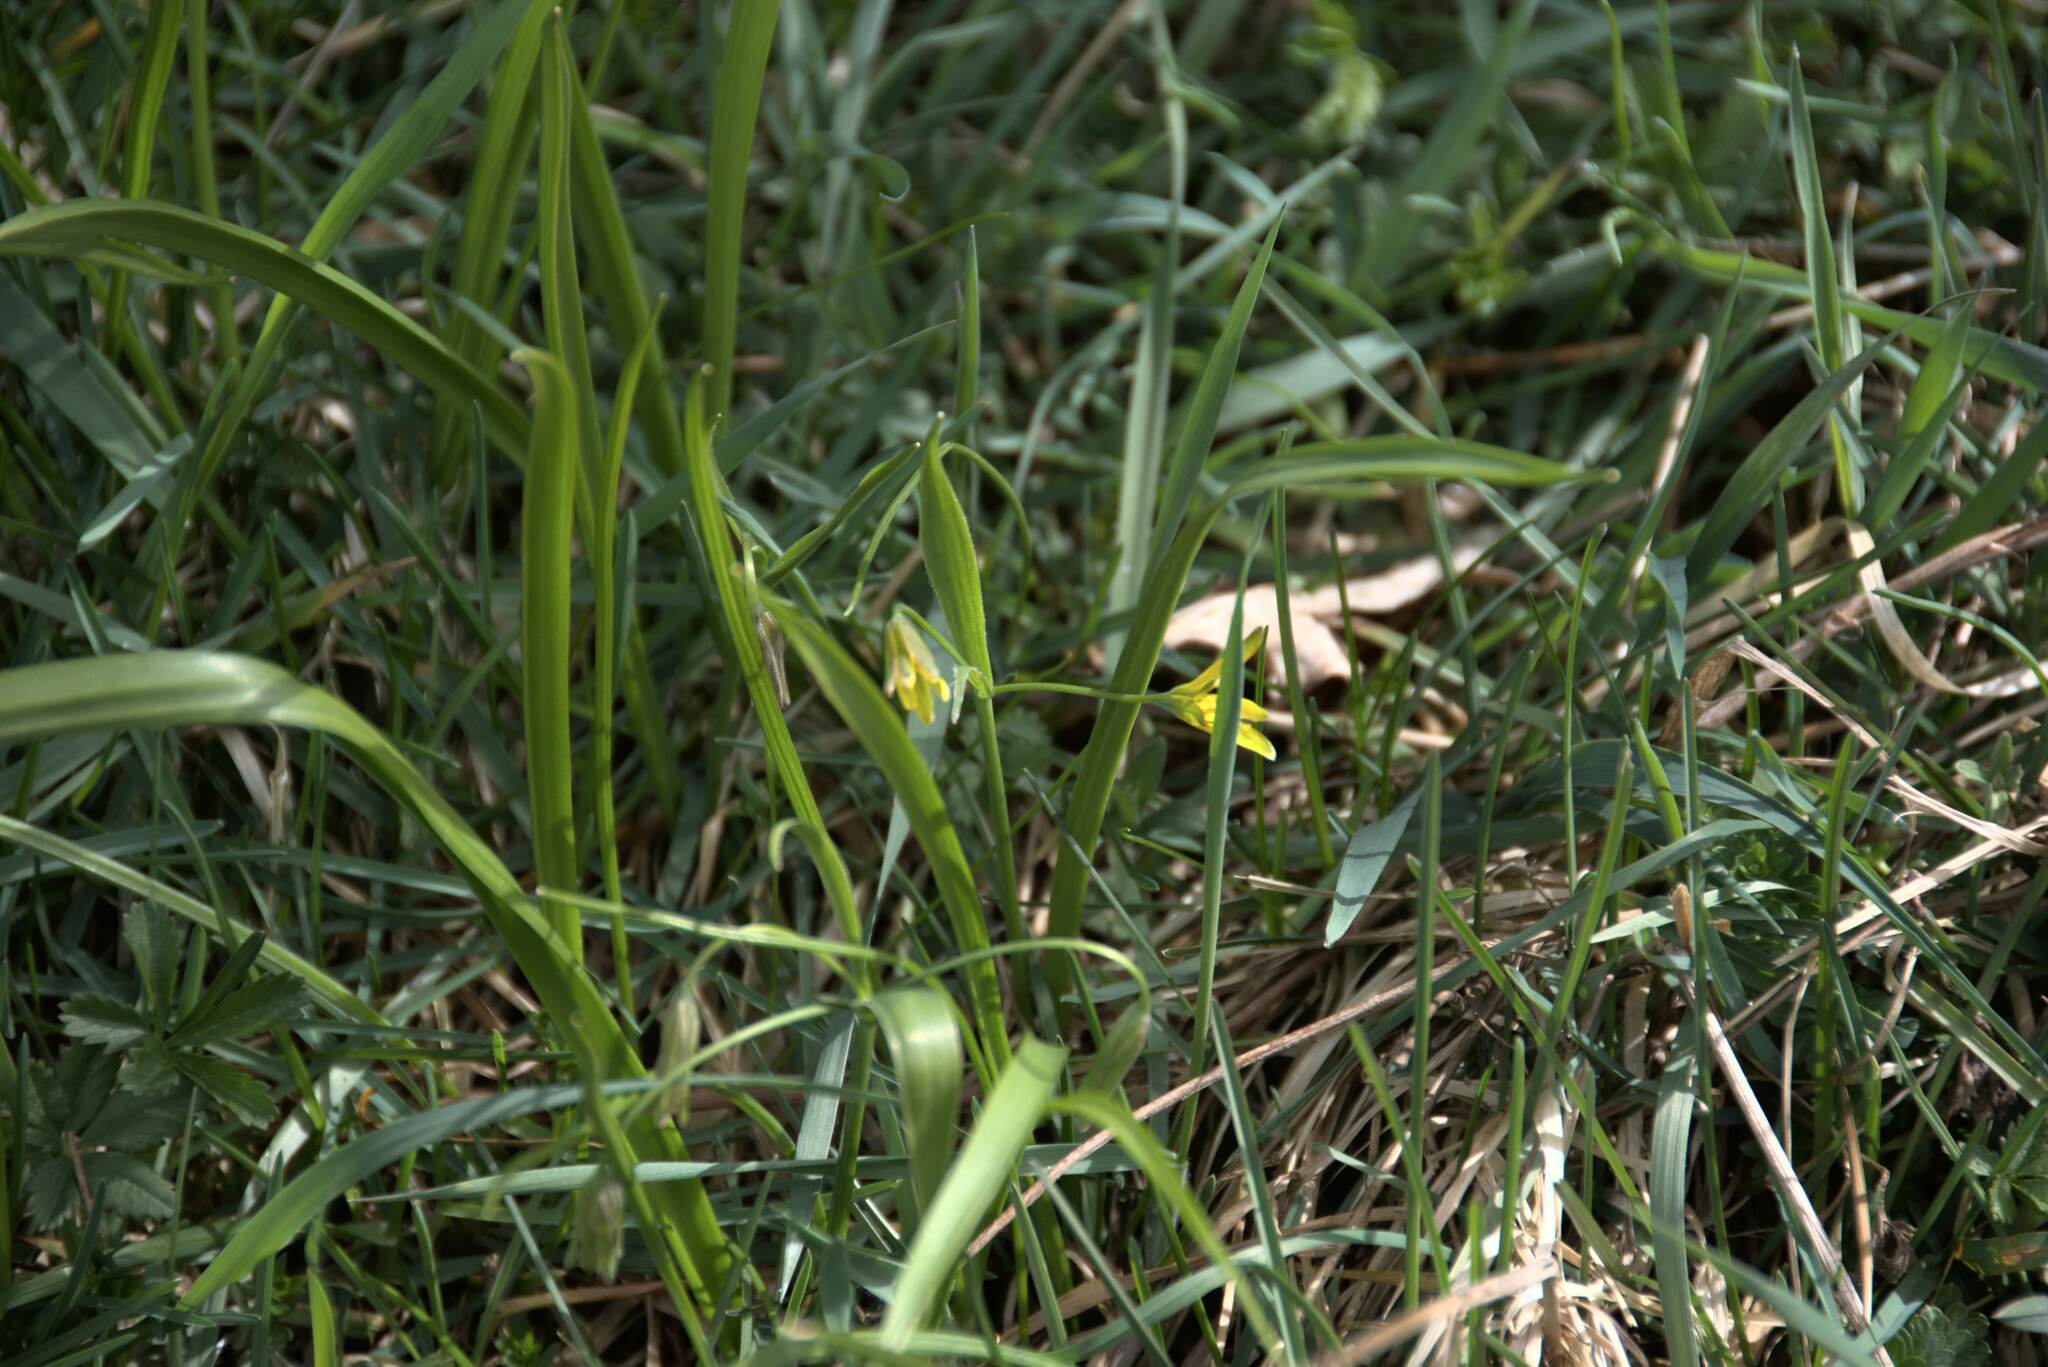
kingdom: Plantae
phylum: Tracheophyta
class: Liliopsida
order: Liliales
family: Liliaceae
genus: Gagea
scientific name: Gagea lutea
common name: Yellow star-of-bethlehem
